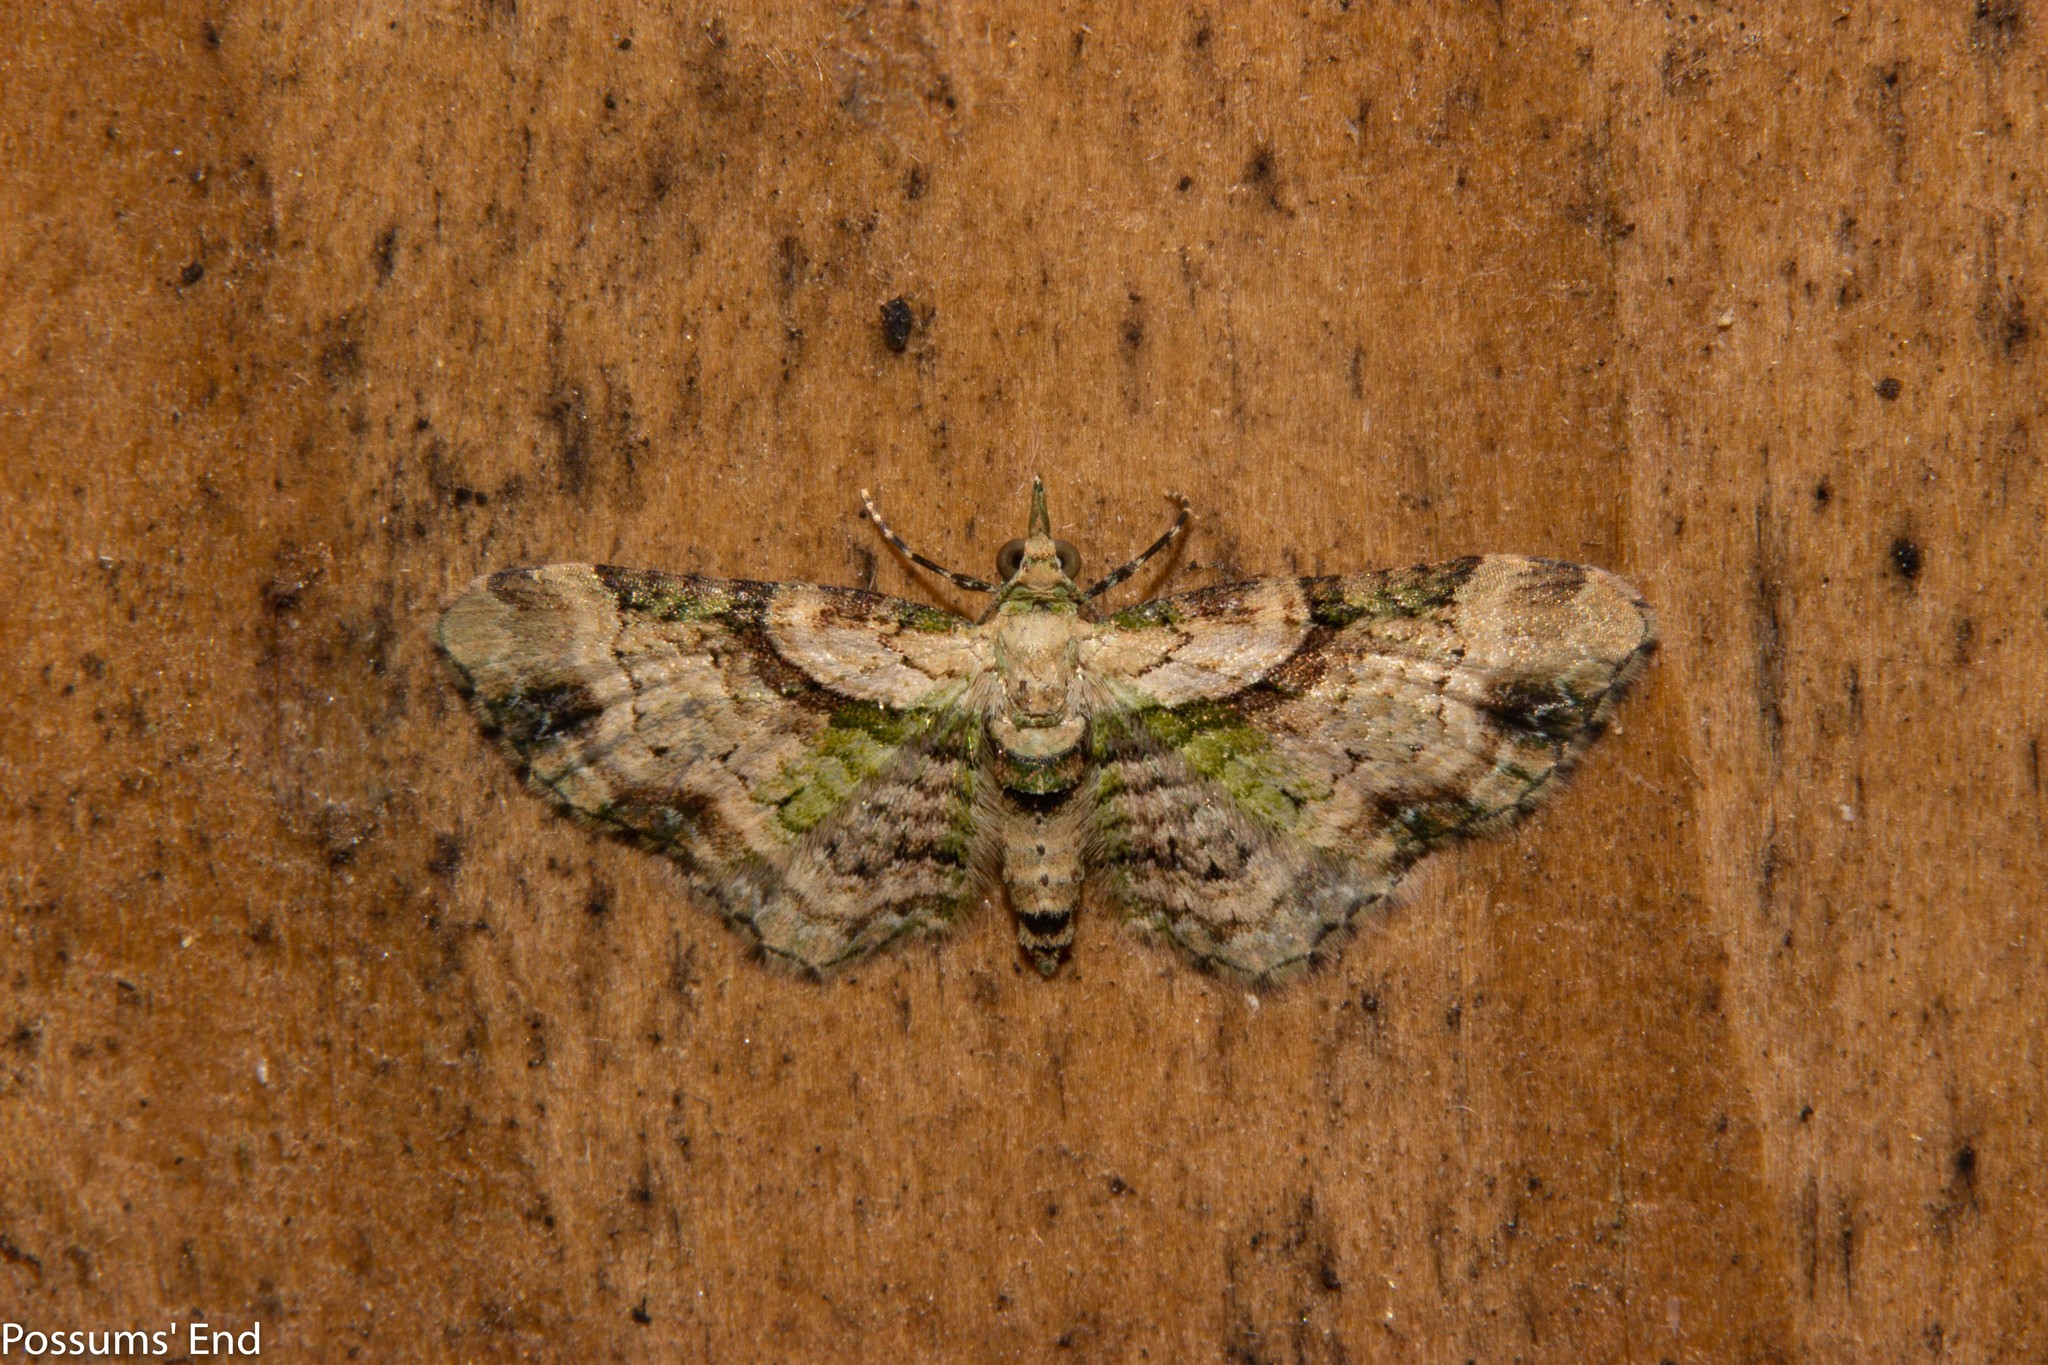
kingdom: Animalia
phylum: Arthropoda
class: Insecta
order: Lepidoptera
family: Geometridae
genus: Chloroclystis
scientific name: Chloroclystis
